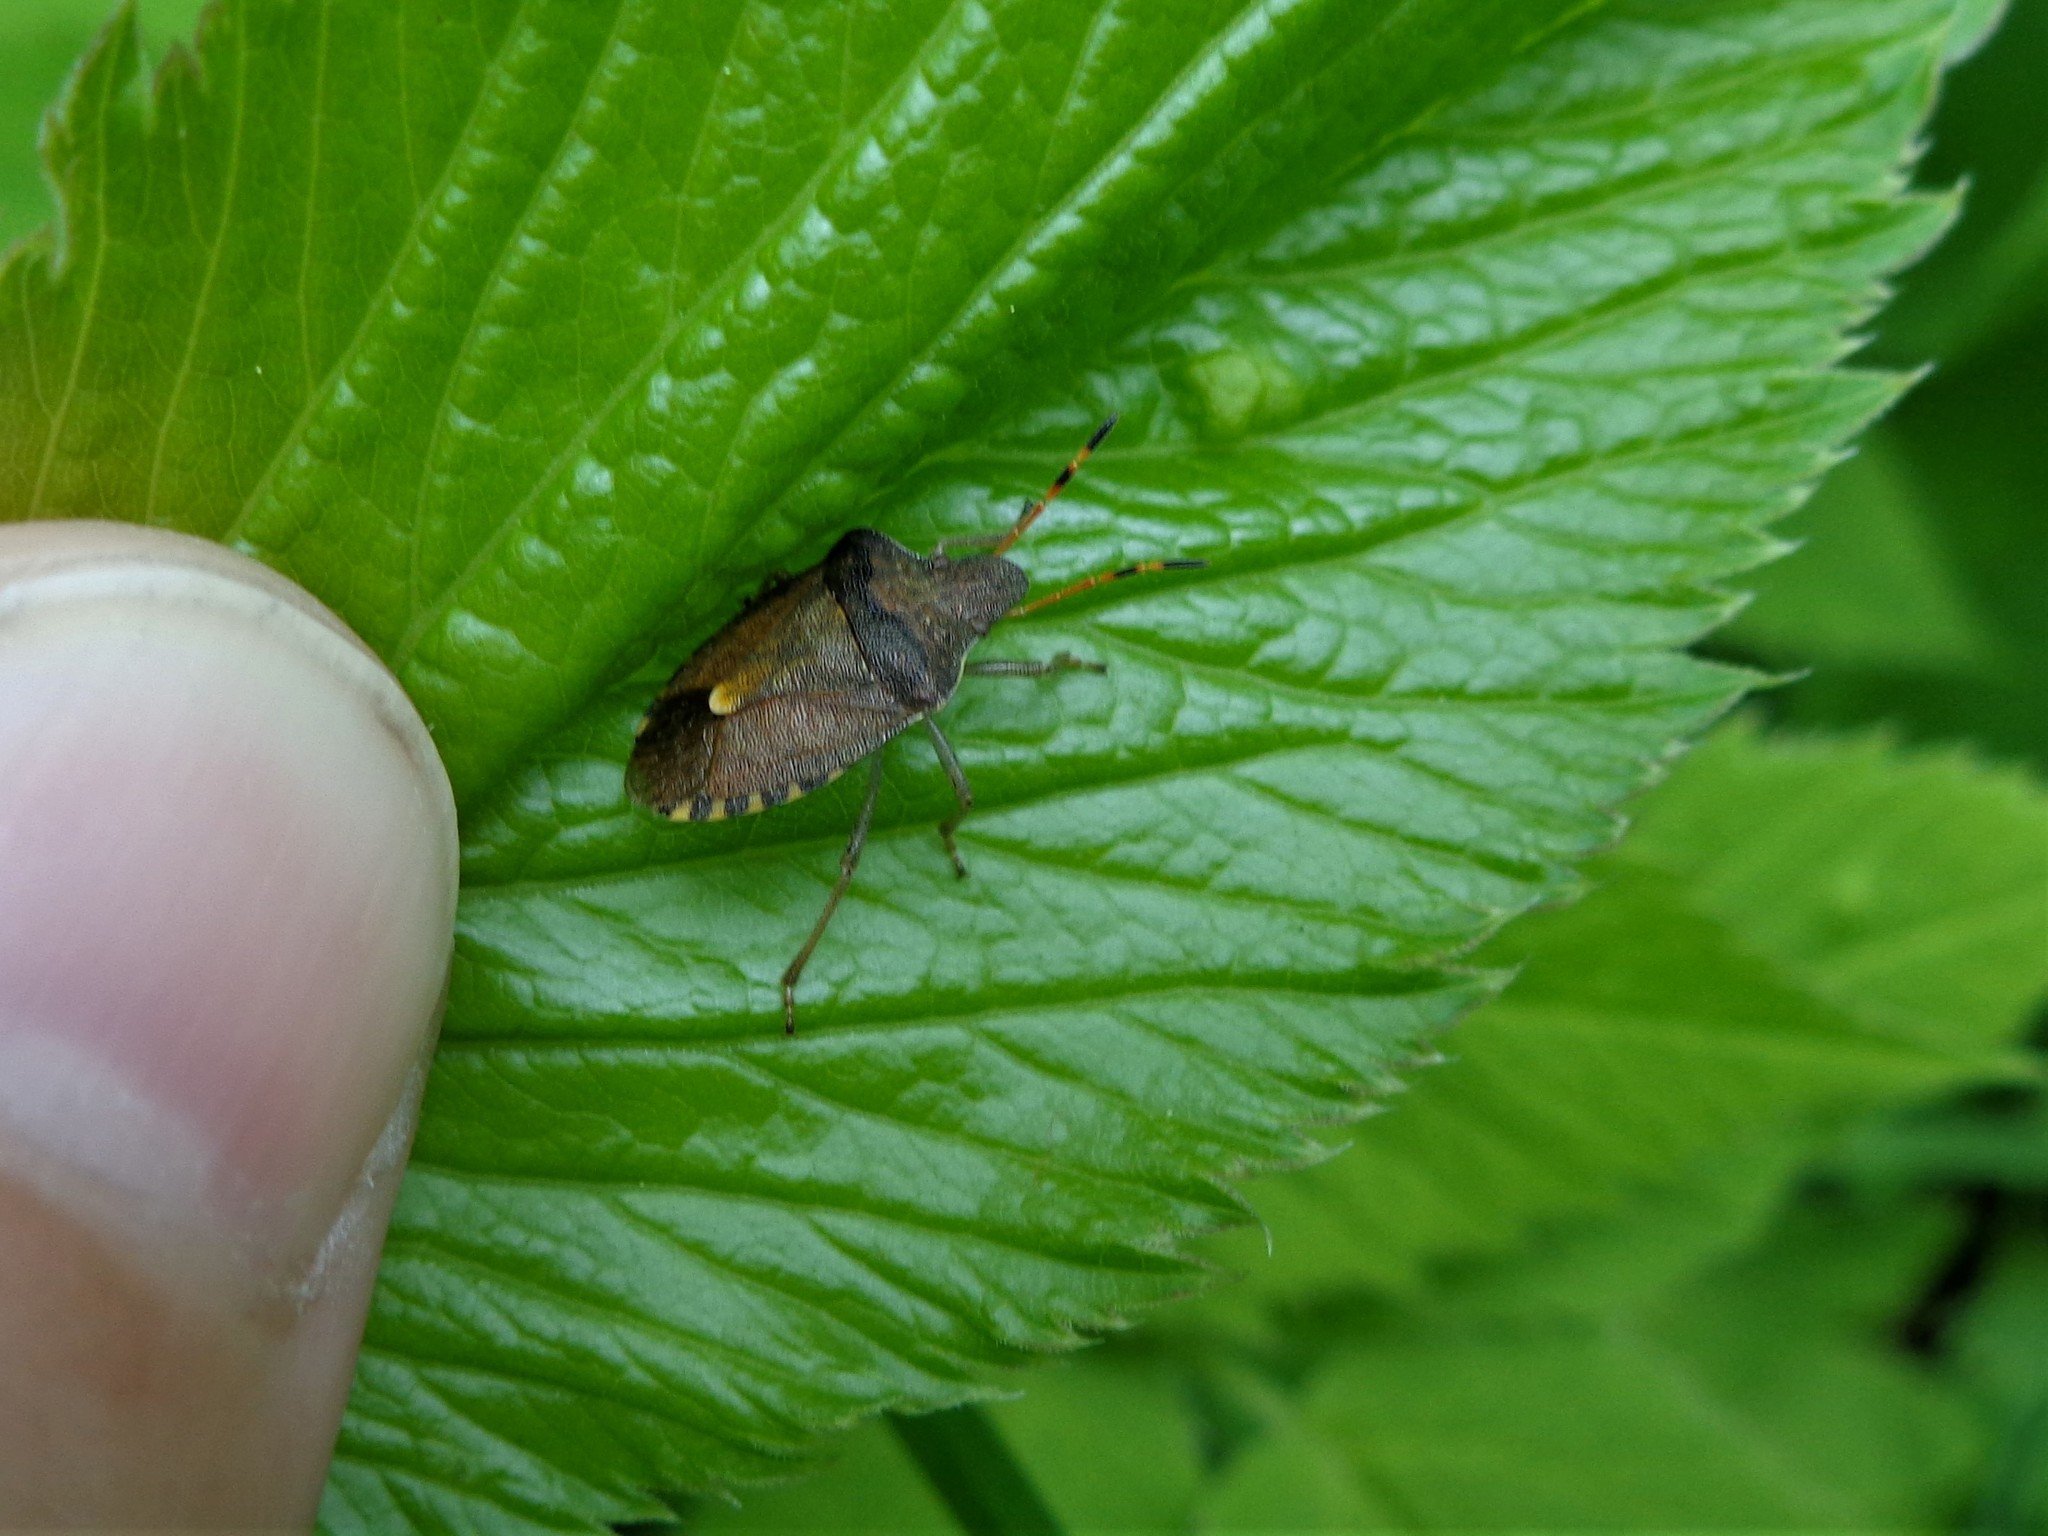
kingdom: Animalia
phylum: Arthropoda
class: Insecta
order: Hemiptera
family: Pentatomidae
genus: Holcostethus
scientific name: Holcostethus strictus
